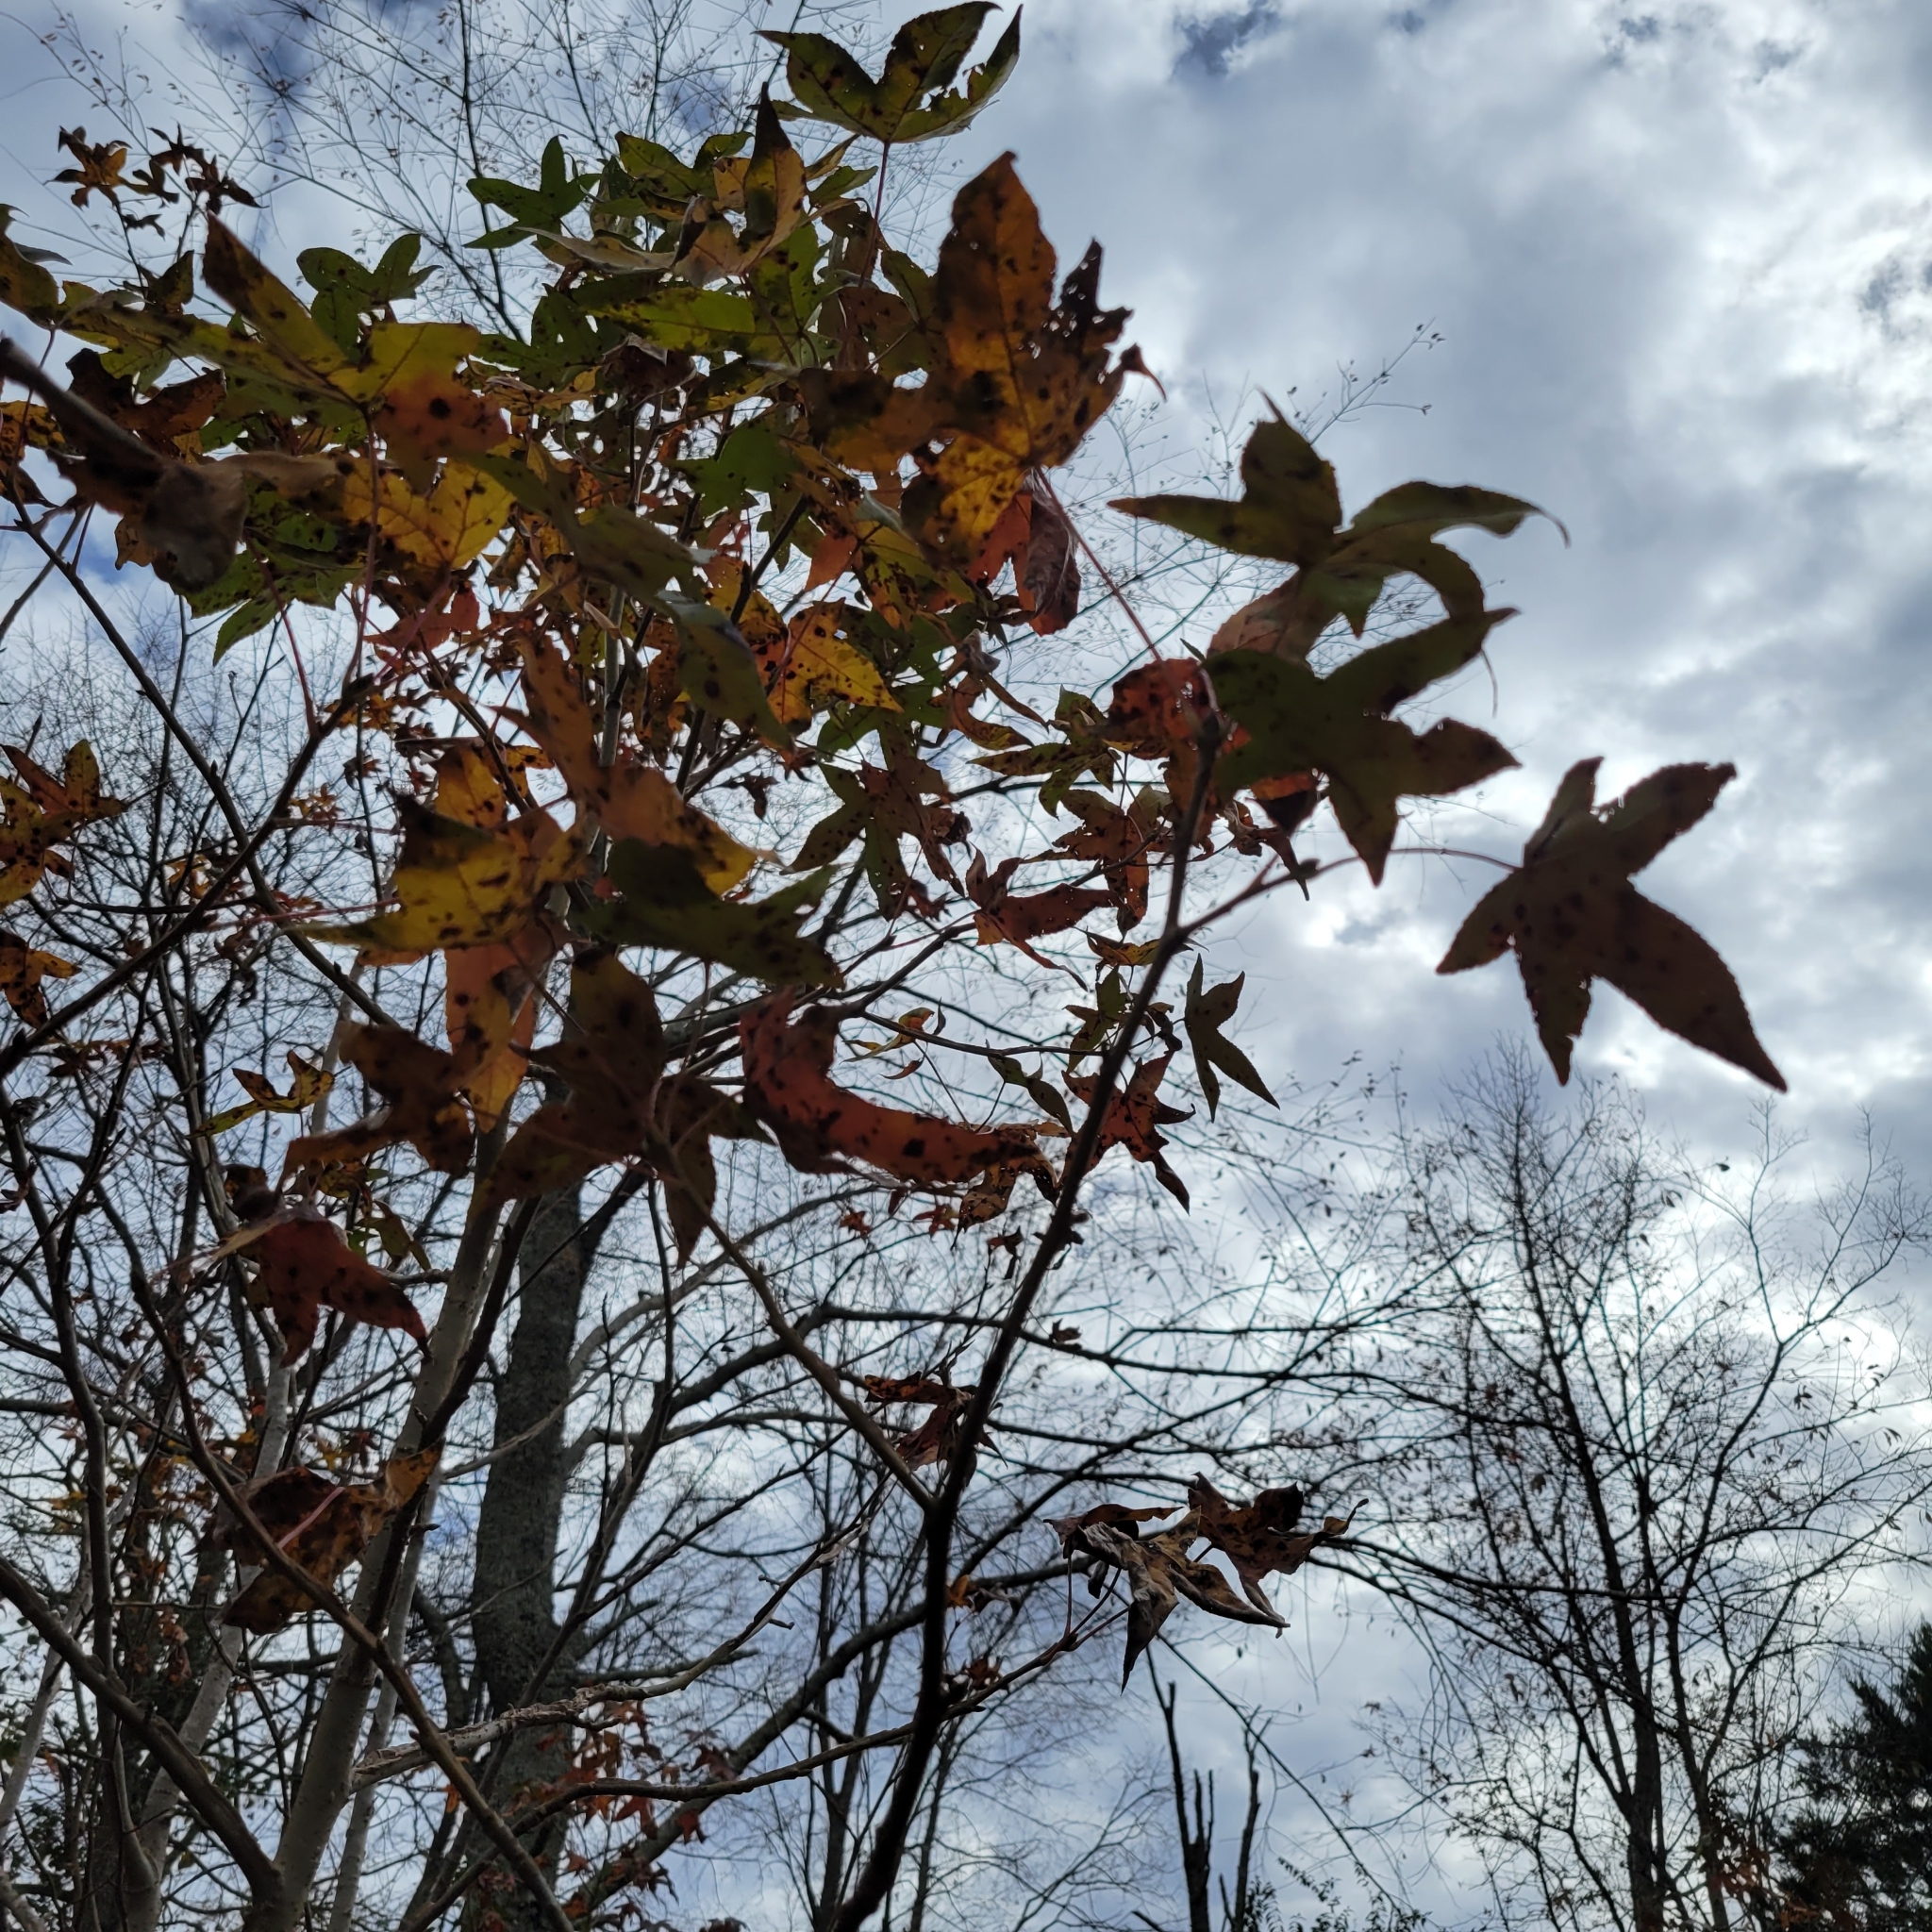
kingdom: Plantae
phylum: Tracheophyta
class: Magnoliopsida
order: Saxifragales
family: Altingiaceae
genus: Liquidambar
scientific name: Liquidambar styraciflua
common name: Sweet gum
